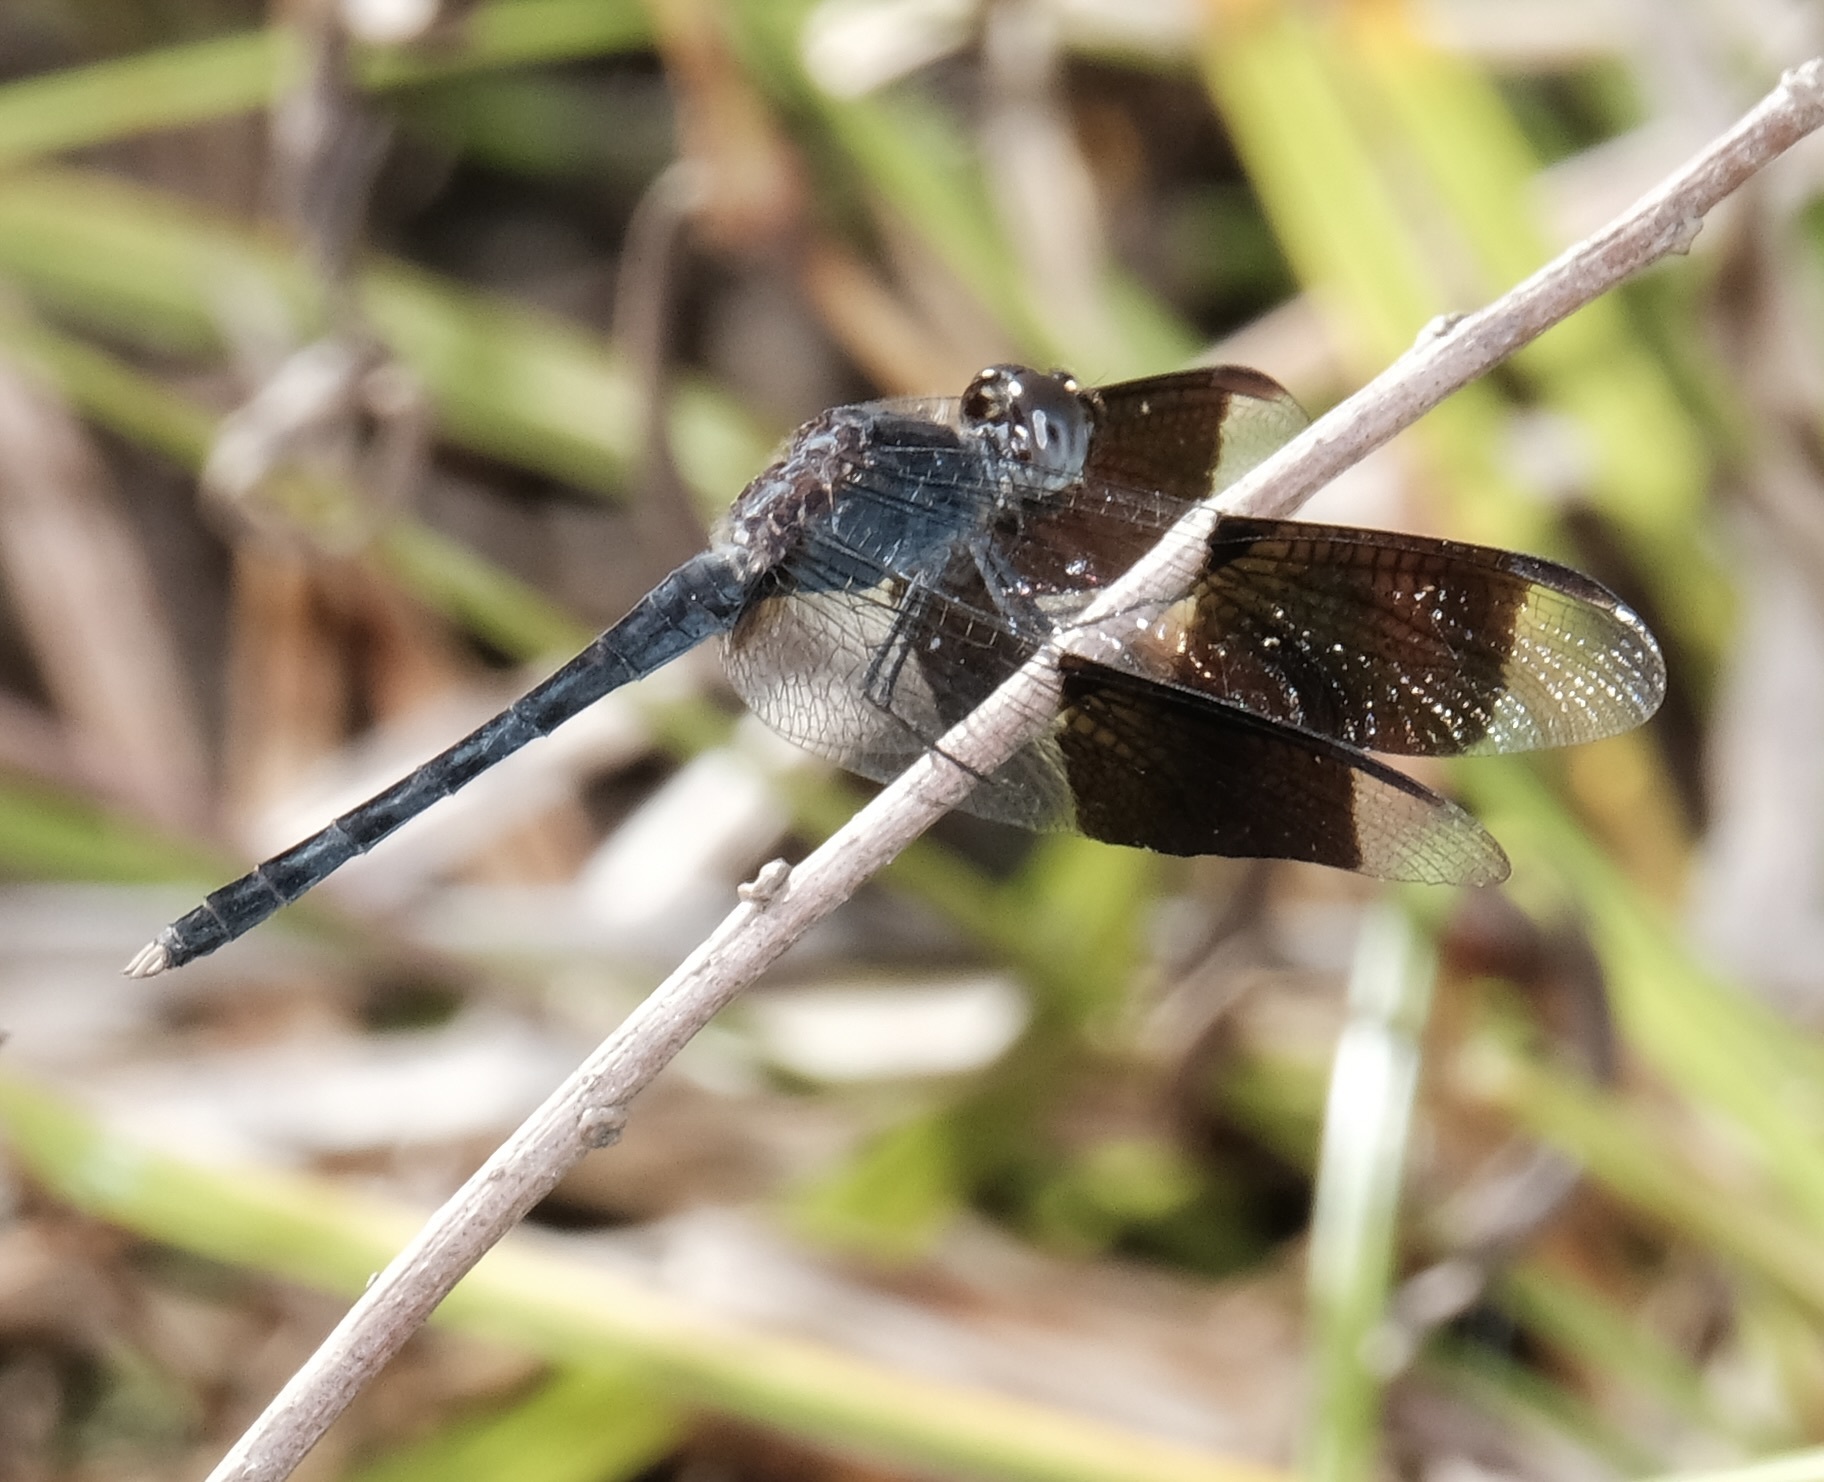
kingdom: Animalia
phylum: Arthropoda
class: Insecta
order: Odonata
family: Libellulidae
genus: Erythrodiplax
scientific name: Erythrodiplax umbrata
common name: Band-winged dragonlet
